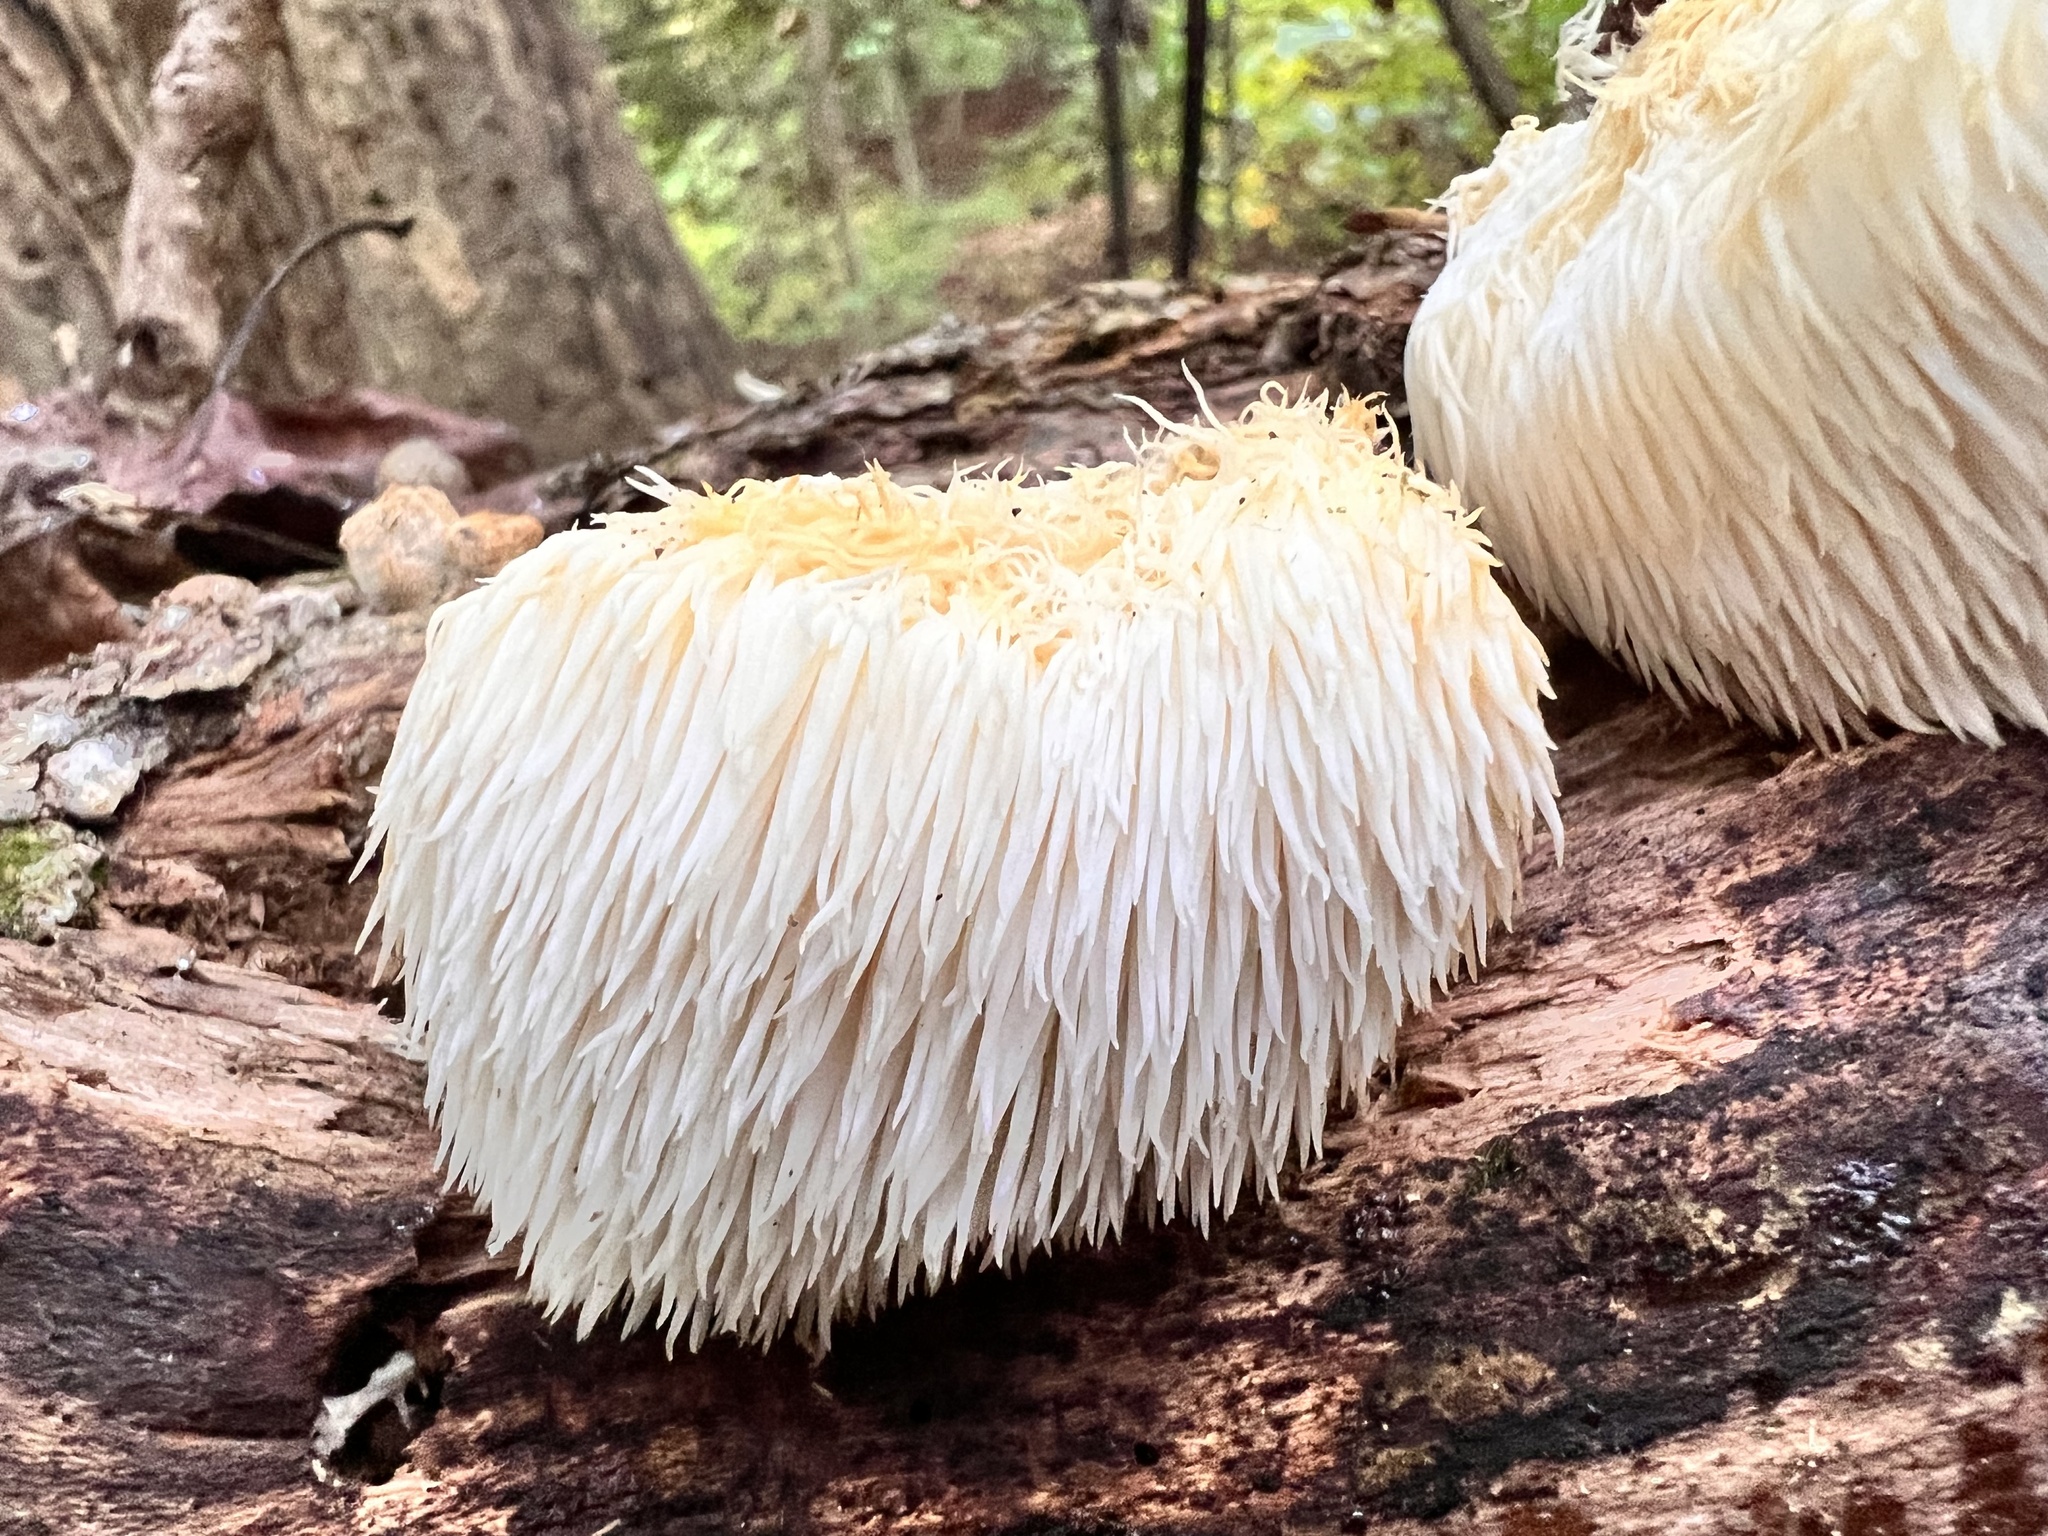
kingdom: Fungi
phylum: Basidiomycota
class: Agaricomycetes
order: Russulales
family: Hericiaceae
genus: Hericium
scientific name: Hericium erinaceus
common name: Bearded tooth
